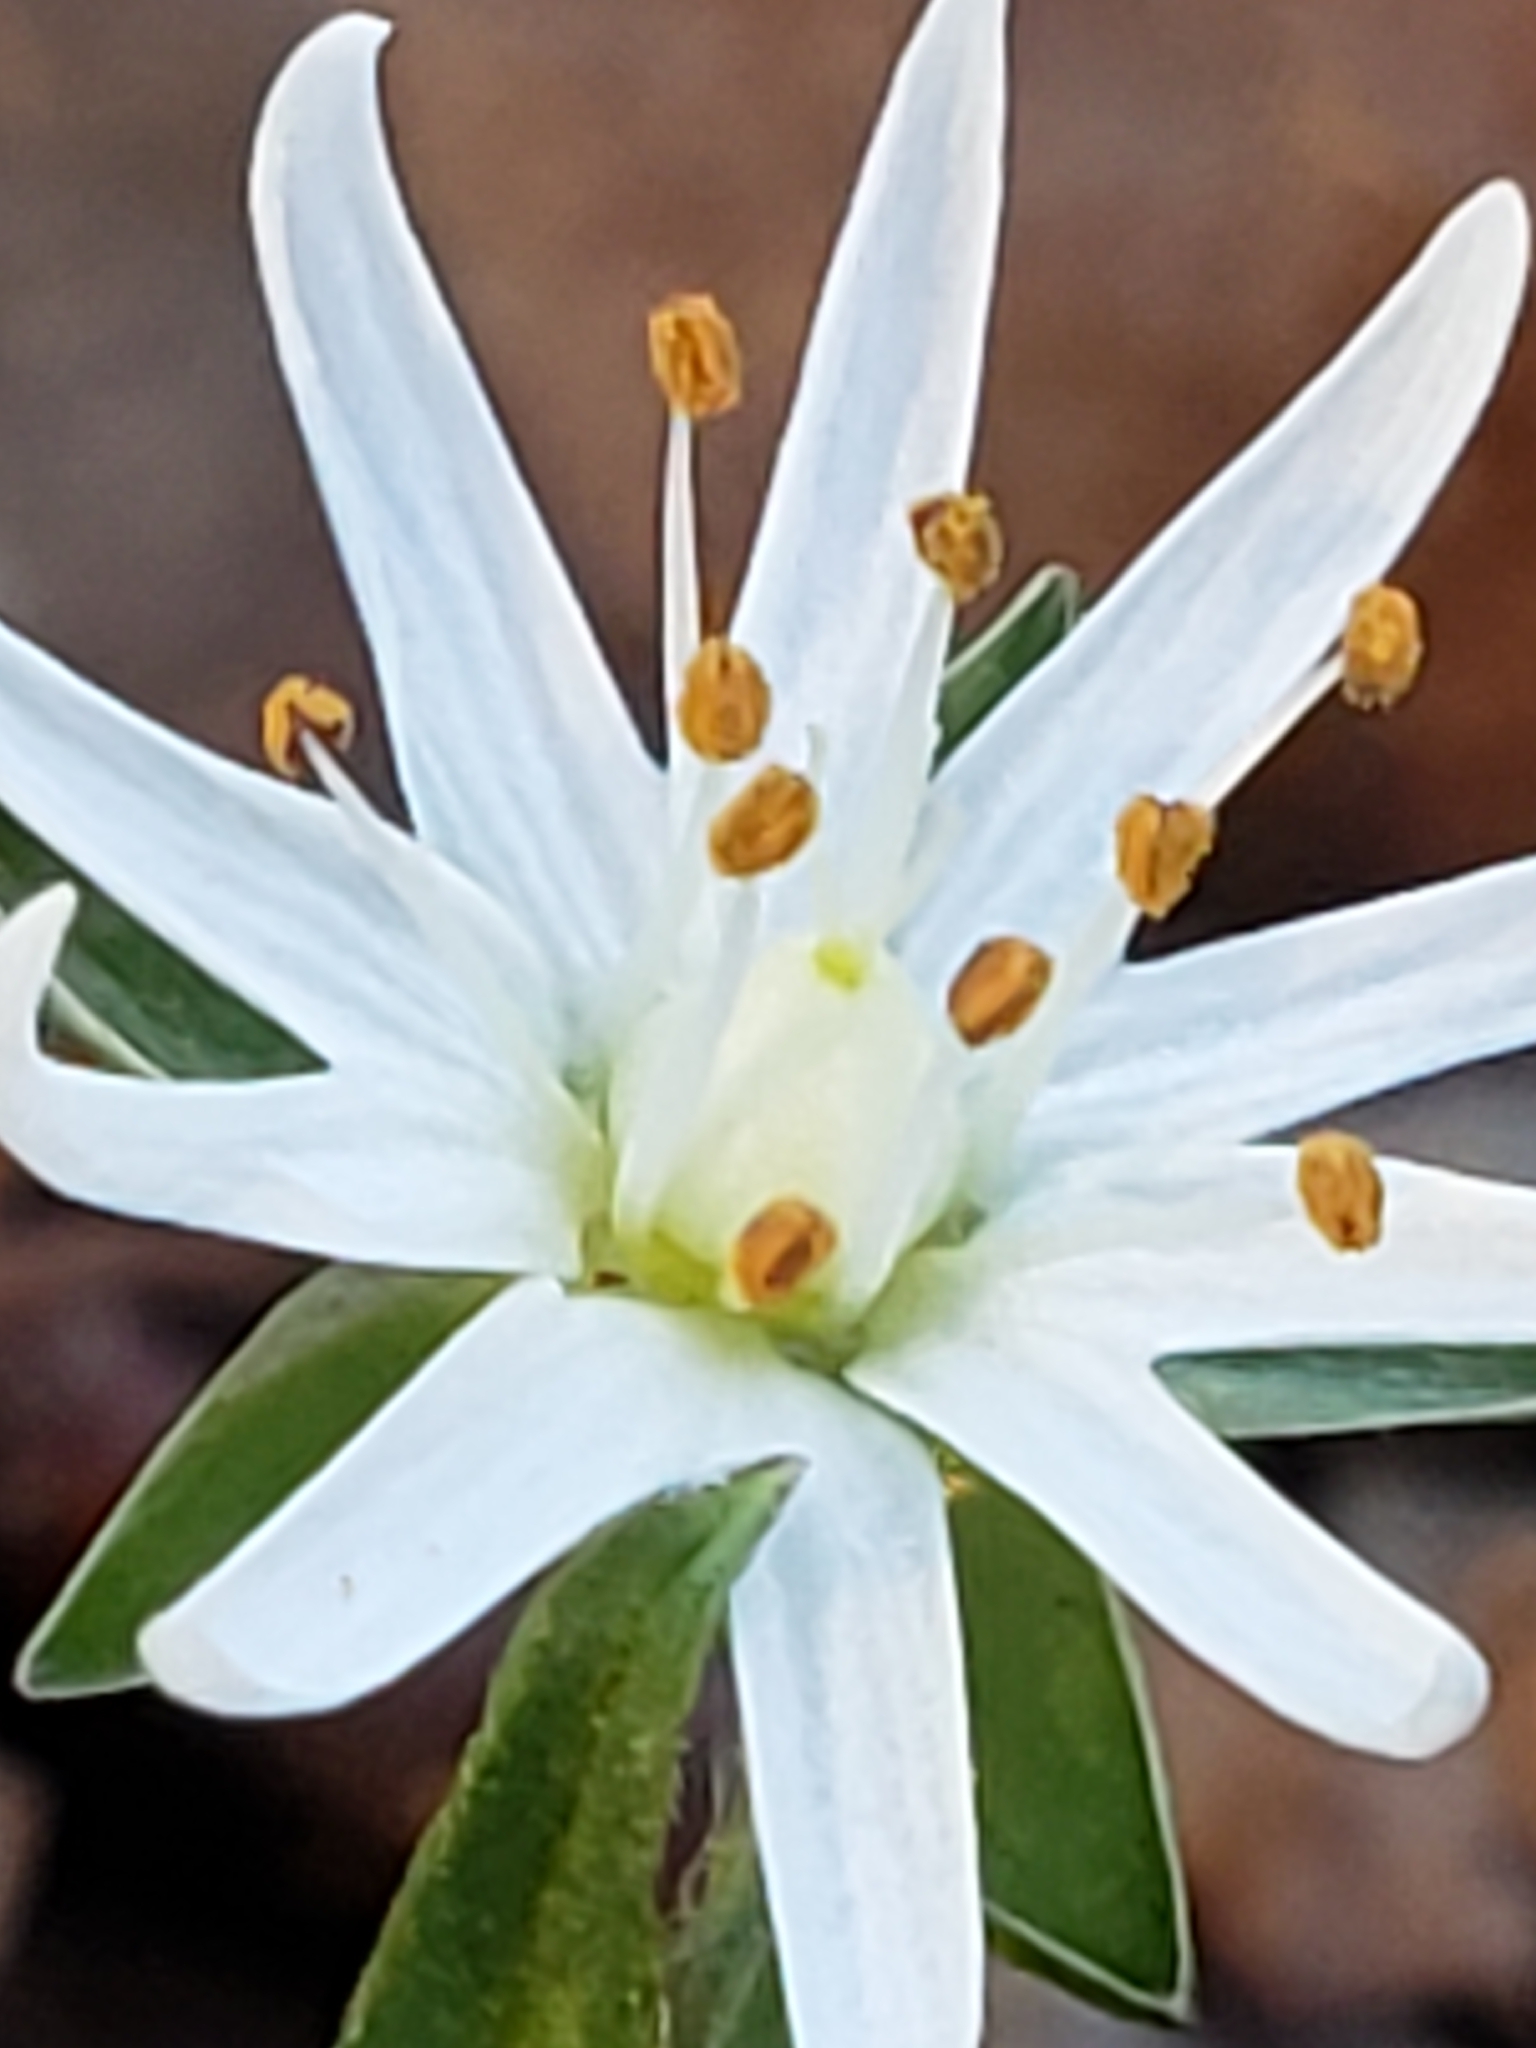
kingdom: Plantae
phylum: Tracheophyta
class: Magnoliopsida
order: Caryophyllales
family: Caryophyllaceae
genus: Stellaria
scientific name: Stellaria pubera
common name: Star chickweed
